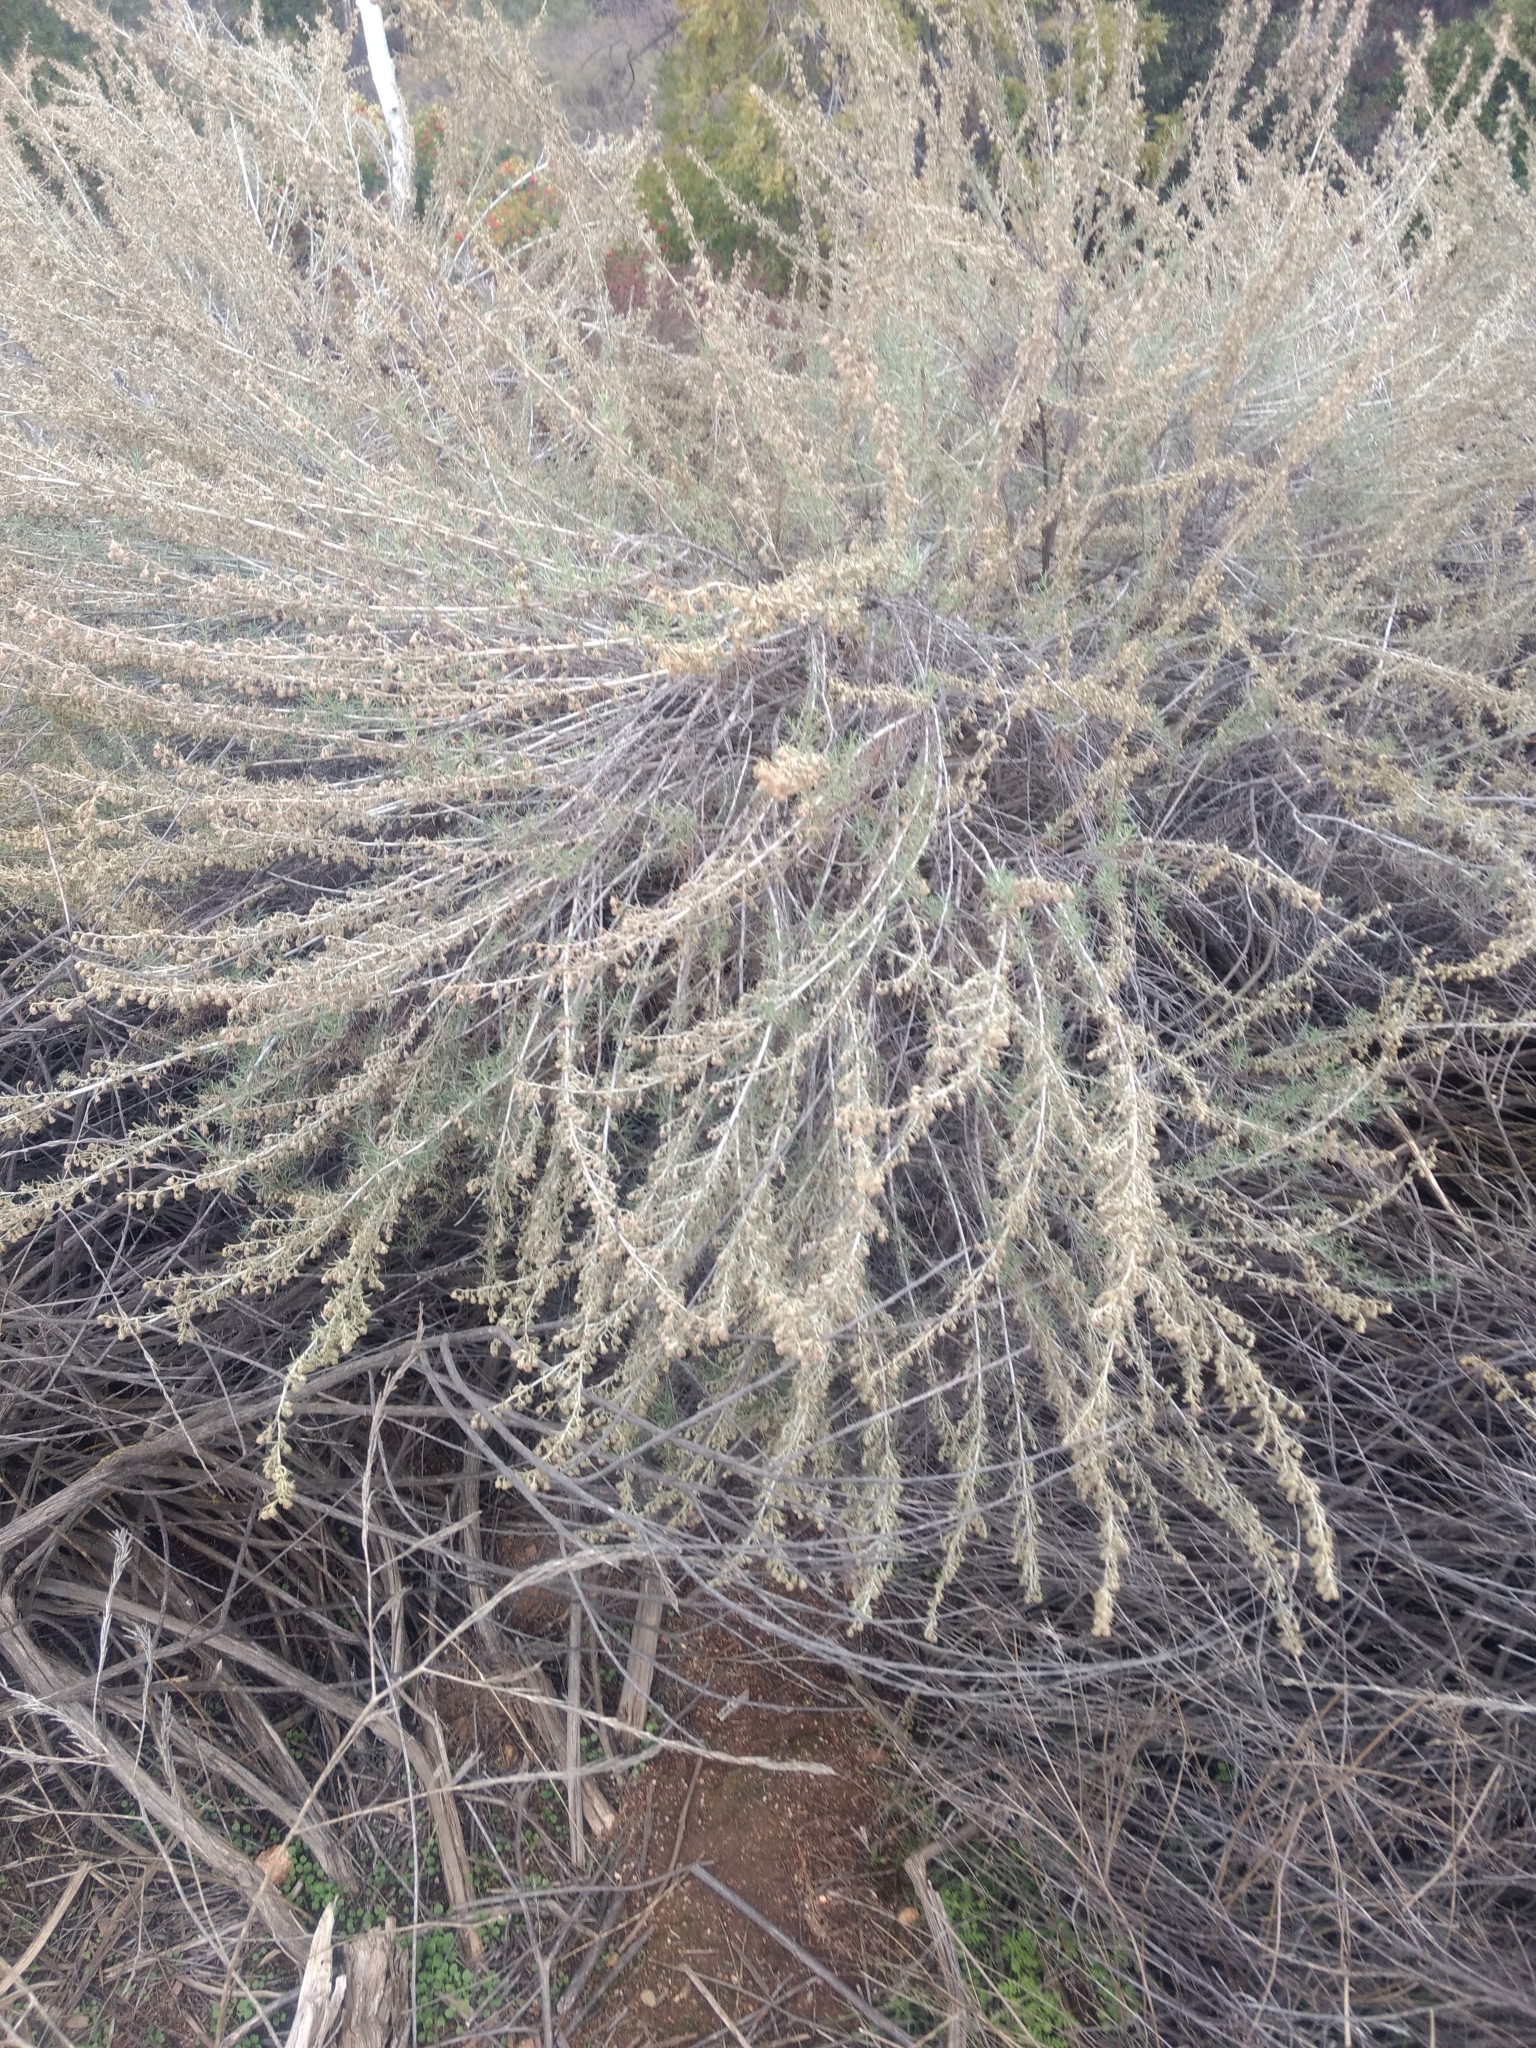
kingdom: Plantae
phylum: Tracheophyta
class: Magnoliopsida
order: Asterales
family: Asteraceae
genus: Artemisia
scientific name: Artemisia californica
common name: California sagebrush
